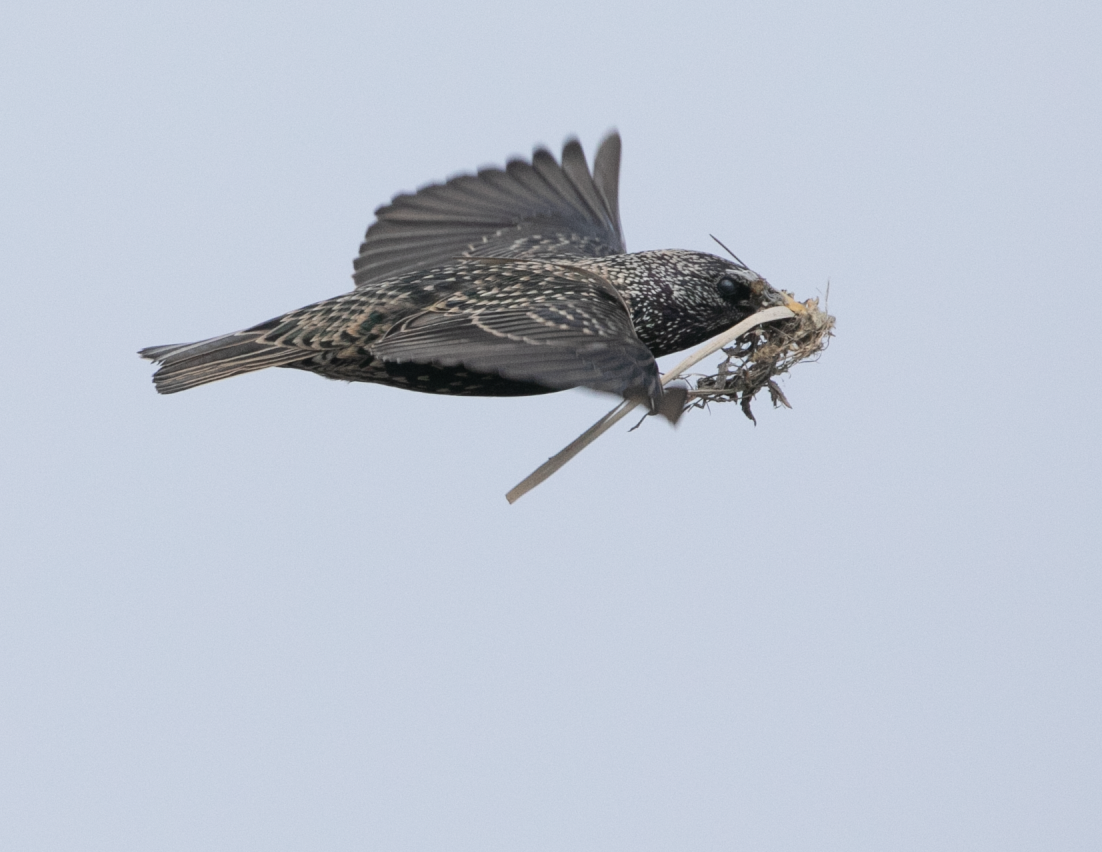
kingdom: Animalia
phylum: Chordata
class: Aves
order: Passeriformes
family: Sturnidae
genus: Sturnus
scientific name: Sturnus vulgaris
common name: Common starling
